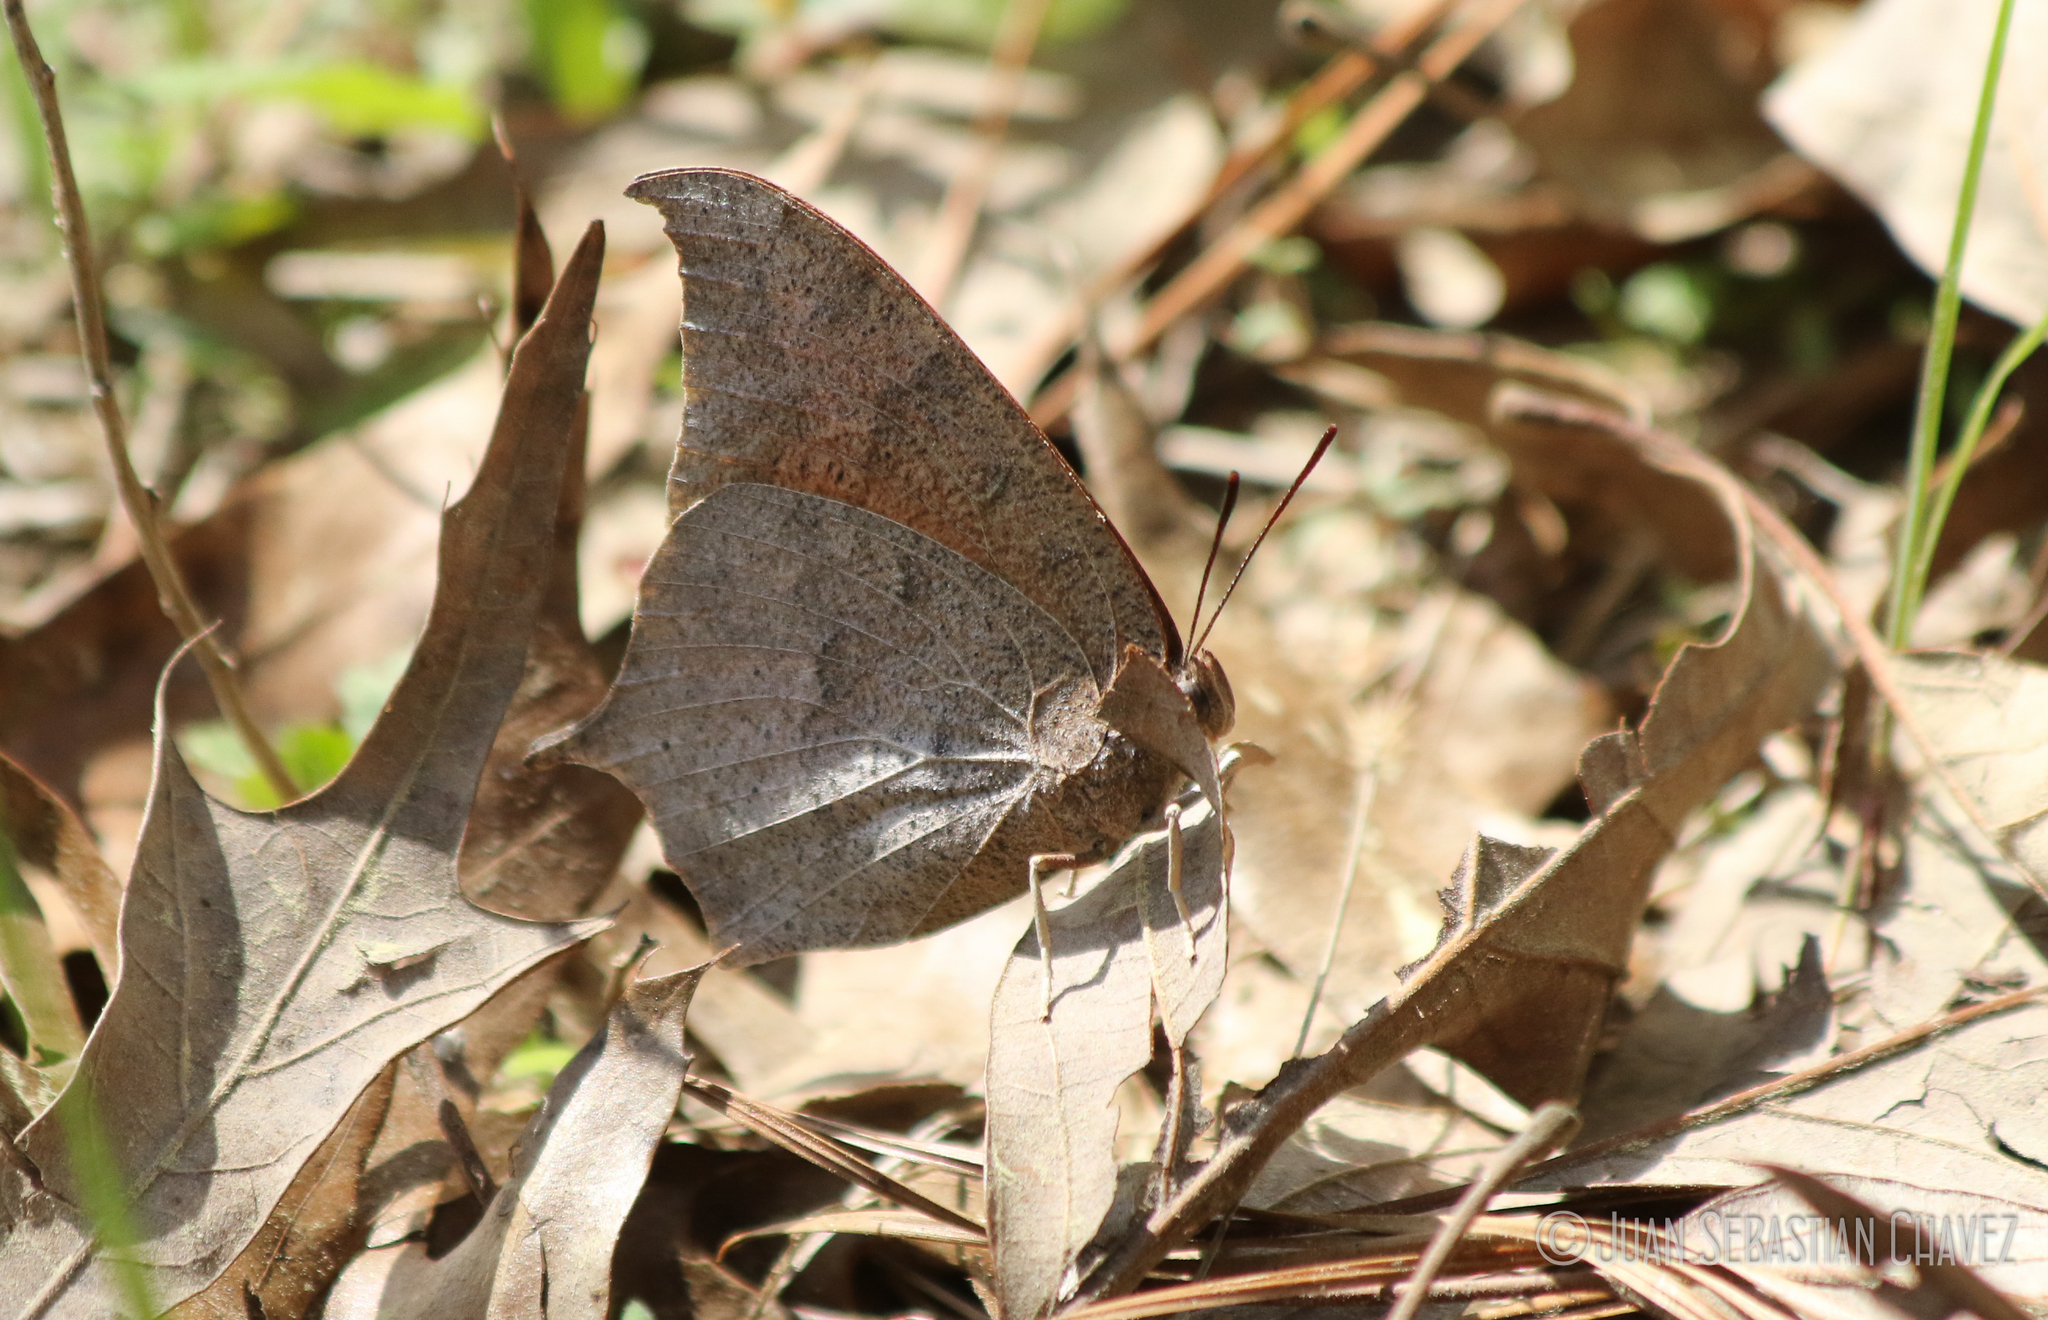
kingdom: Animalia
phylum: Arthropoda
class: Insecta
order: Lepidoptera
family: Nymphalidae
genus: Anaea
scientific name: Anaea andria
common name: Goatweed leafwing
